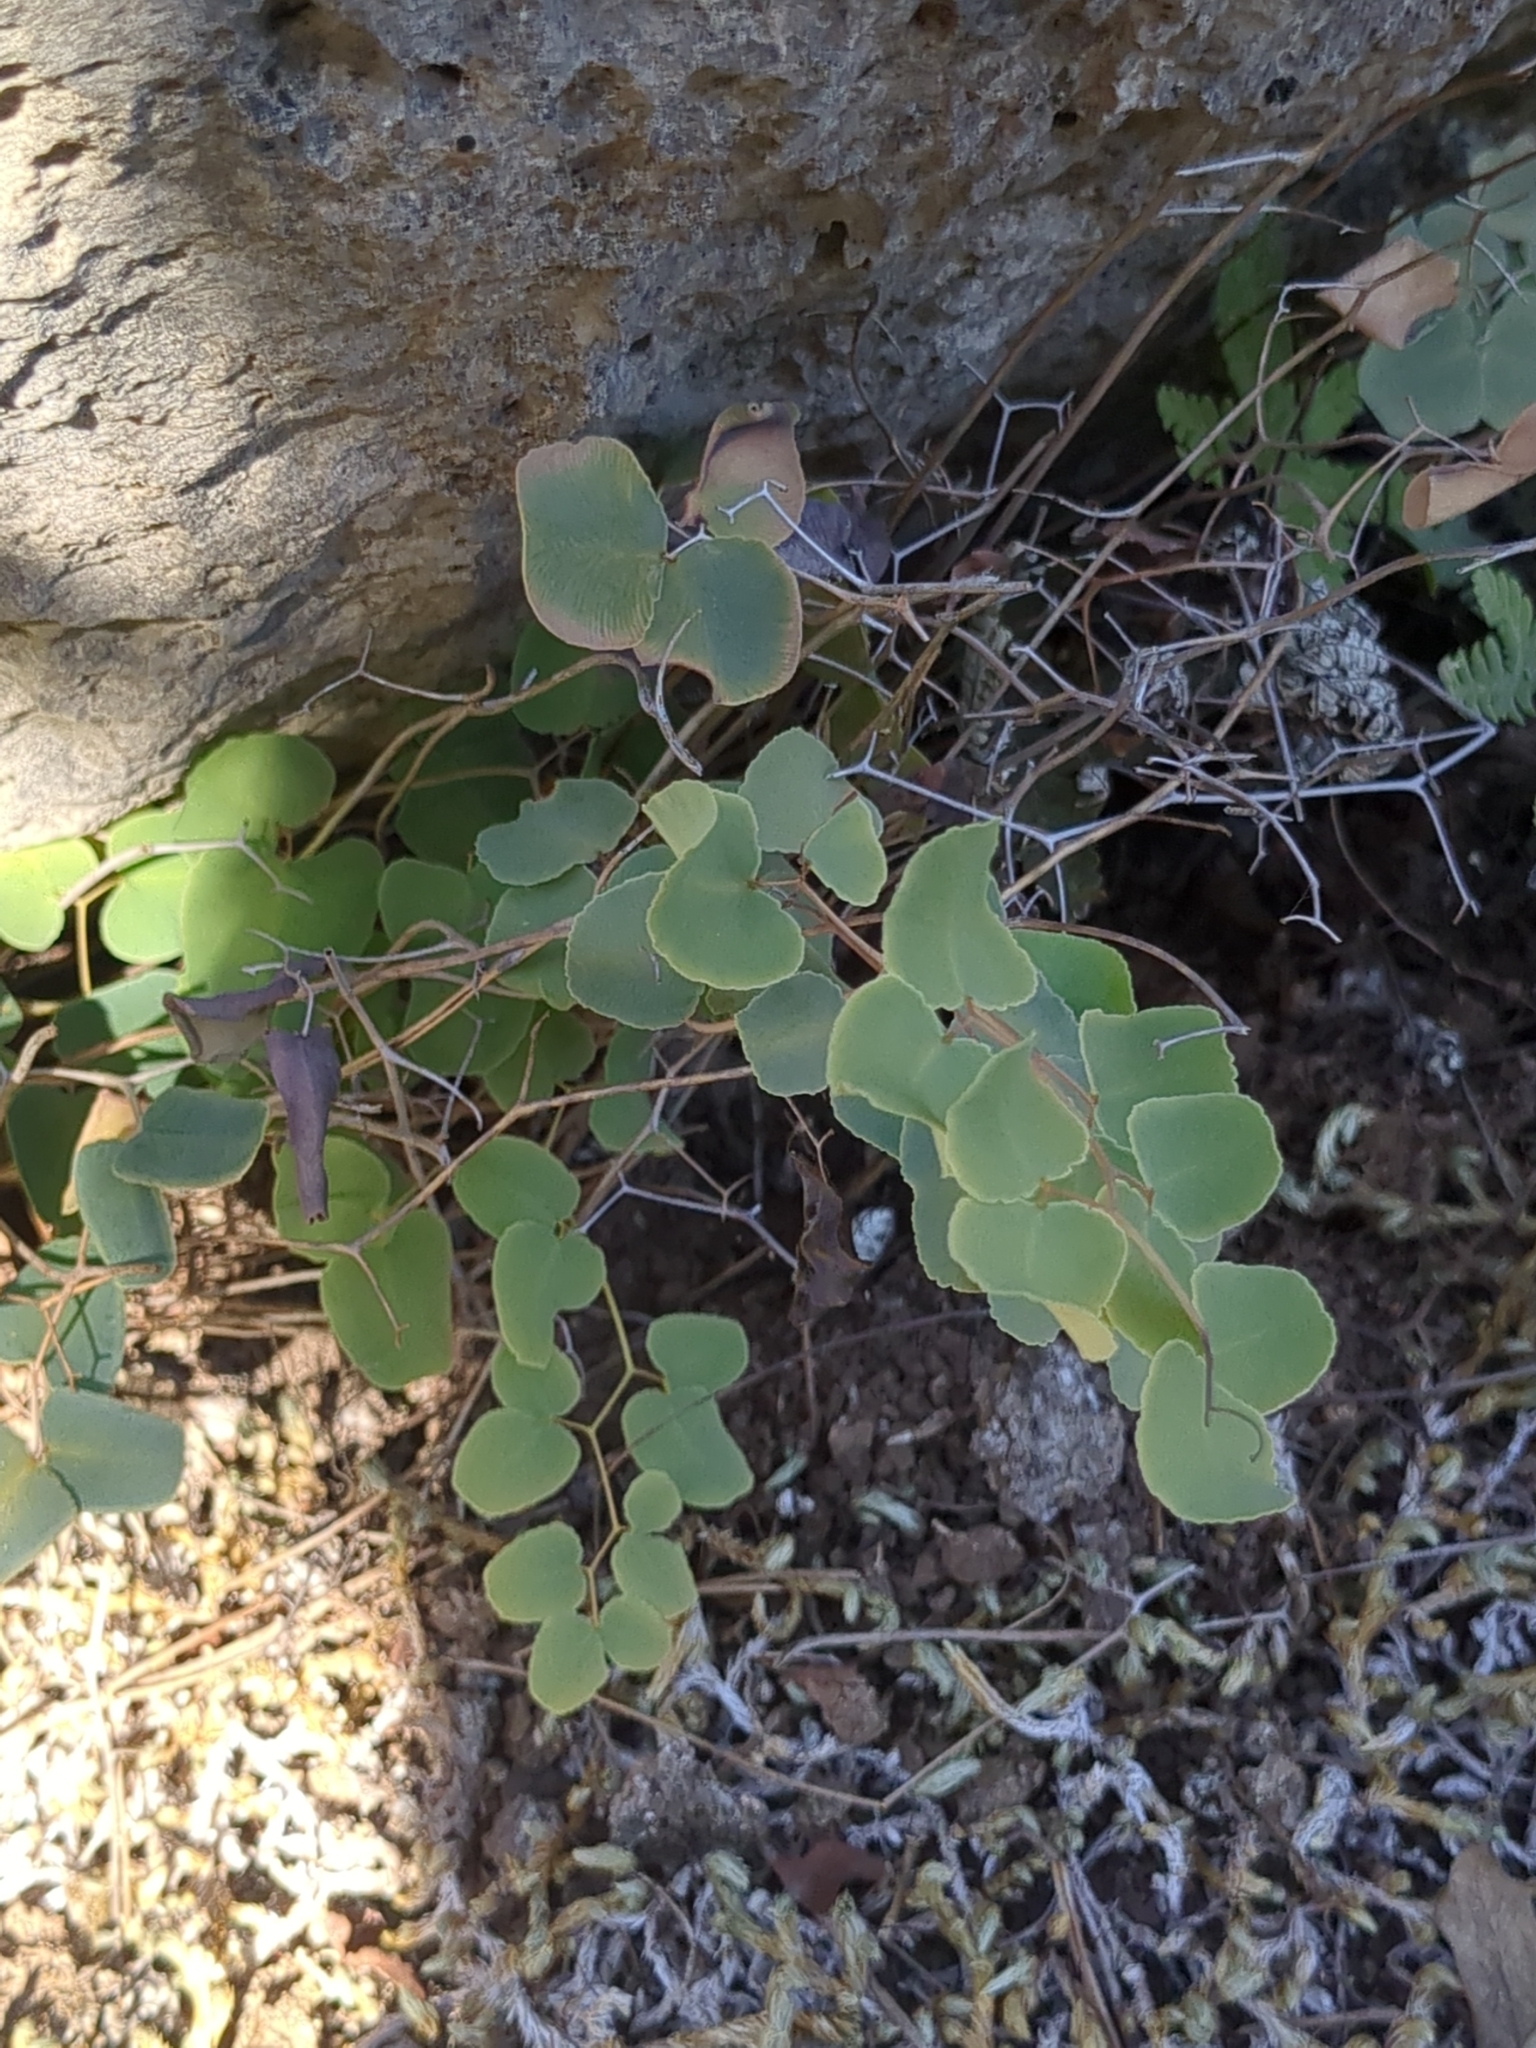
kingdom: Plantae
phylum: Tracheophyta
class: Polypodiopsida
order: Polypodiales
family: Pteridaceae
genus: Pellaea
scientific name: Pellaea ovata
